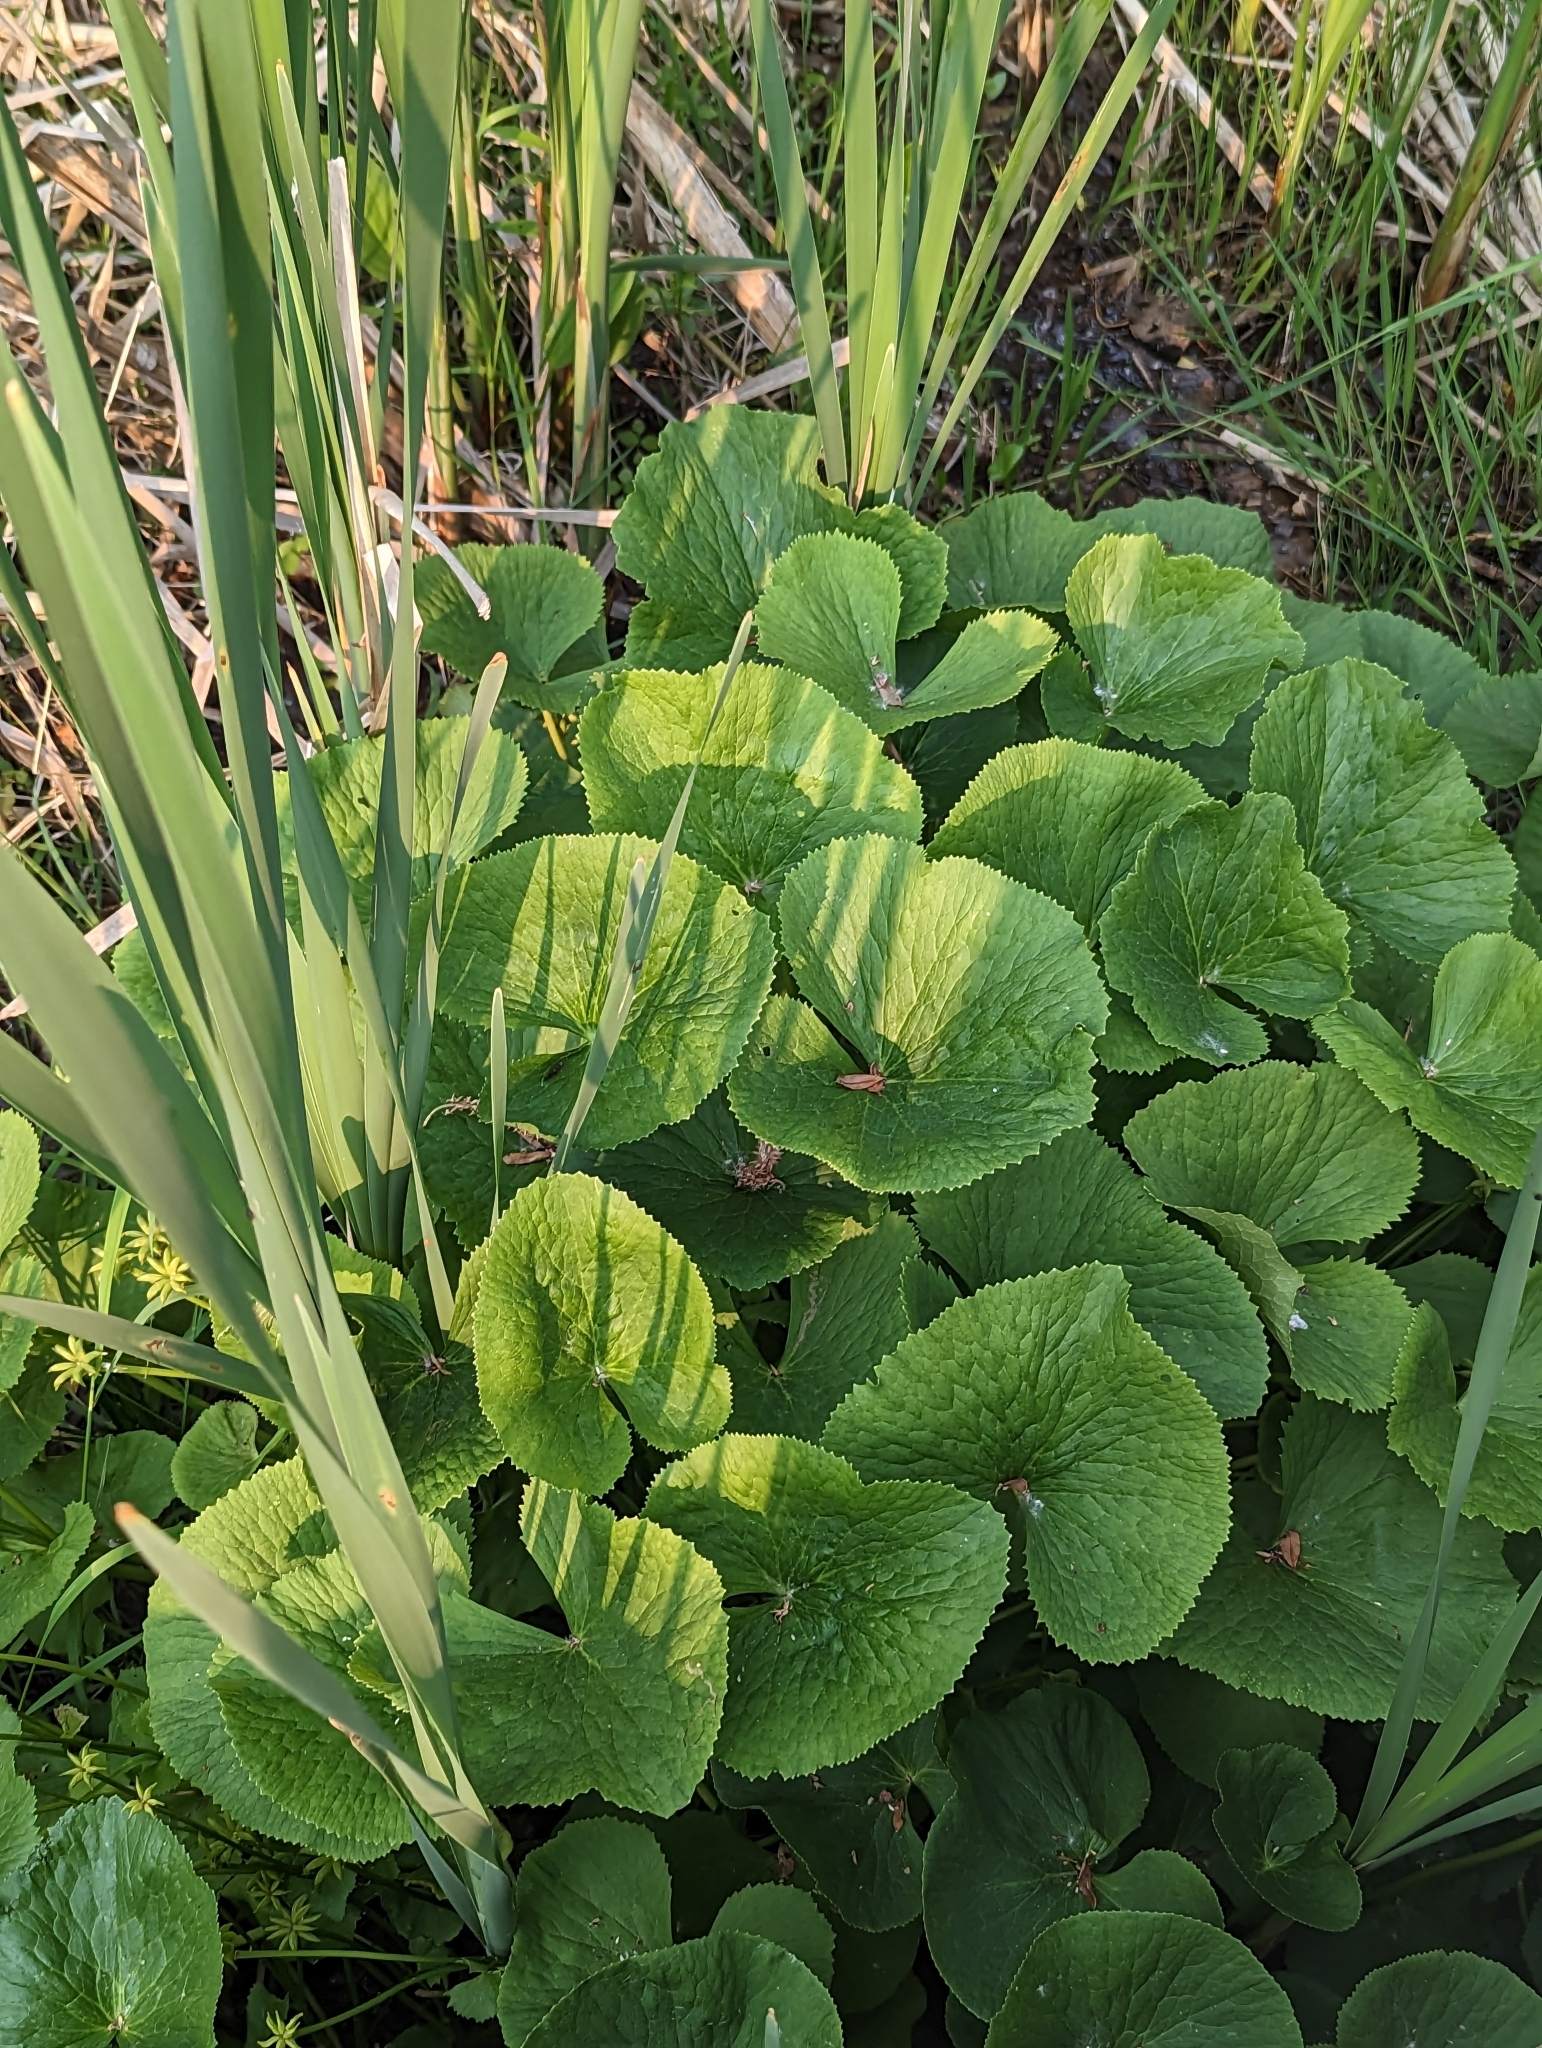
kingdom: Plantae
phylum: Tracheophyta
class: Magnoliopsida
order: Ranunculales
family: Ranunculaceae
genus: Caltha
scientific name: Caltha palustris
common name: Marsh marigold
